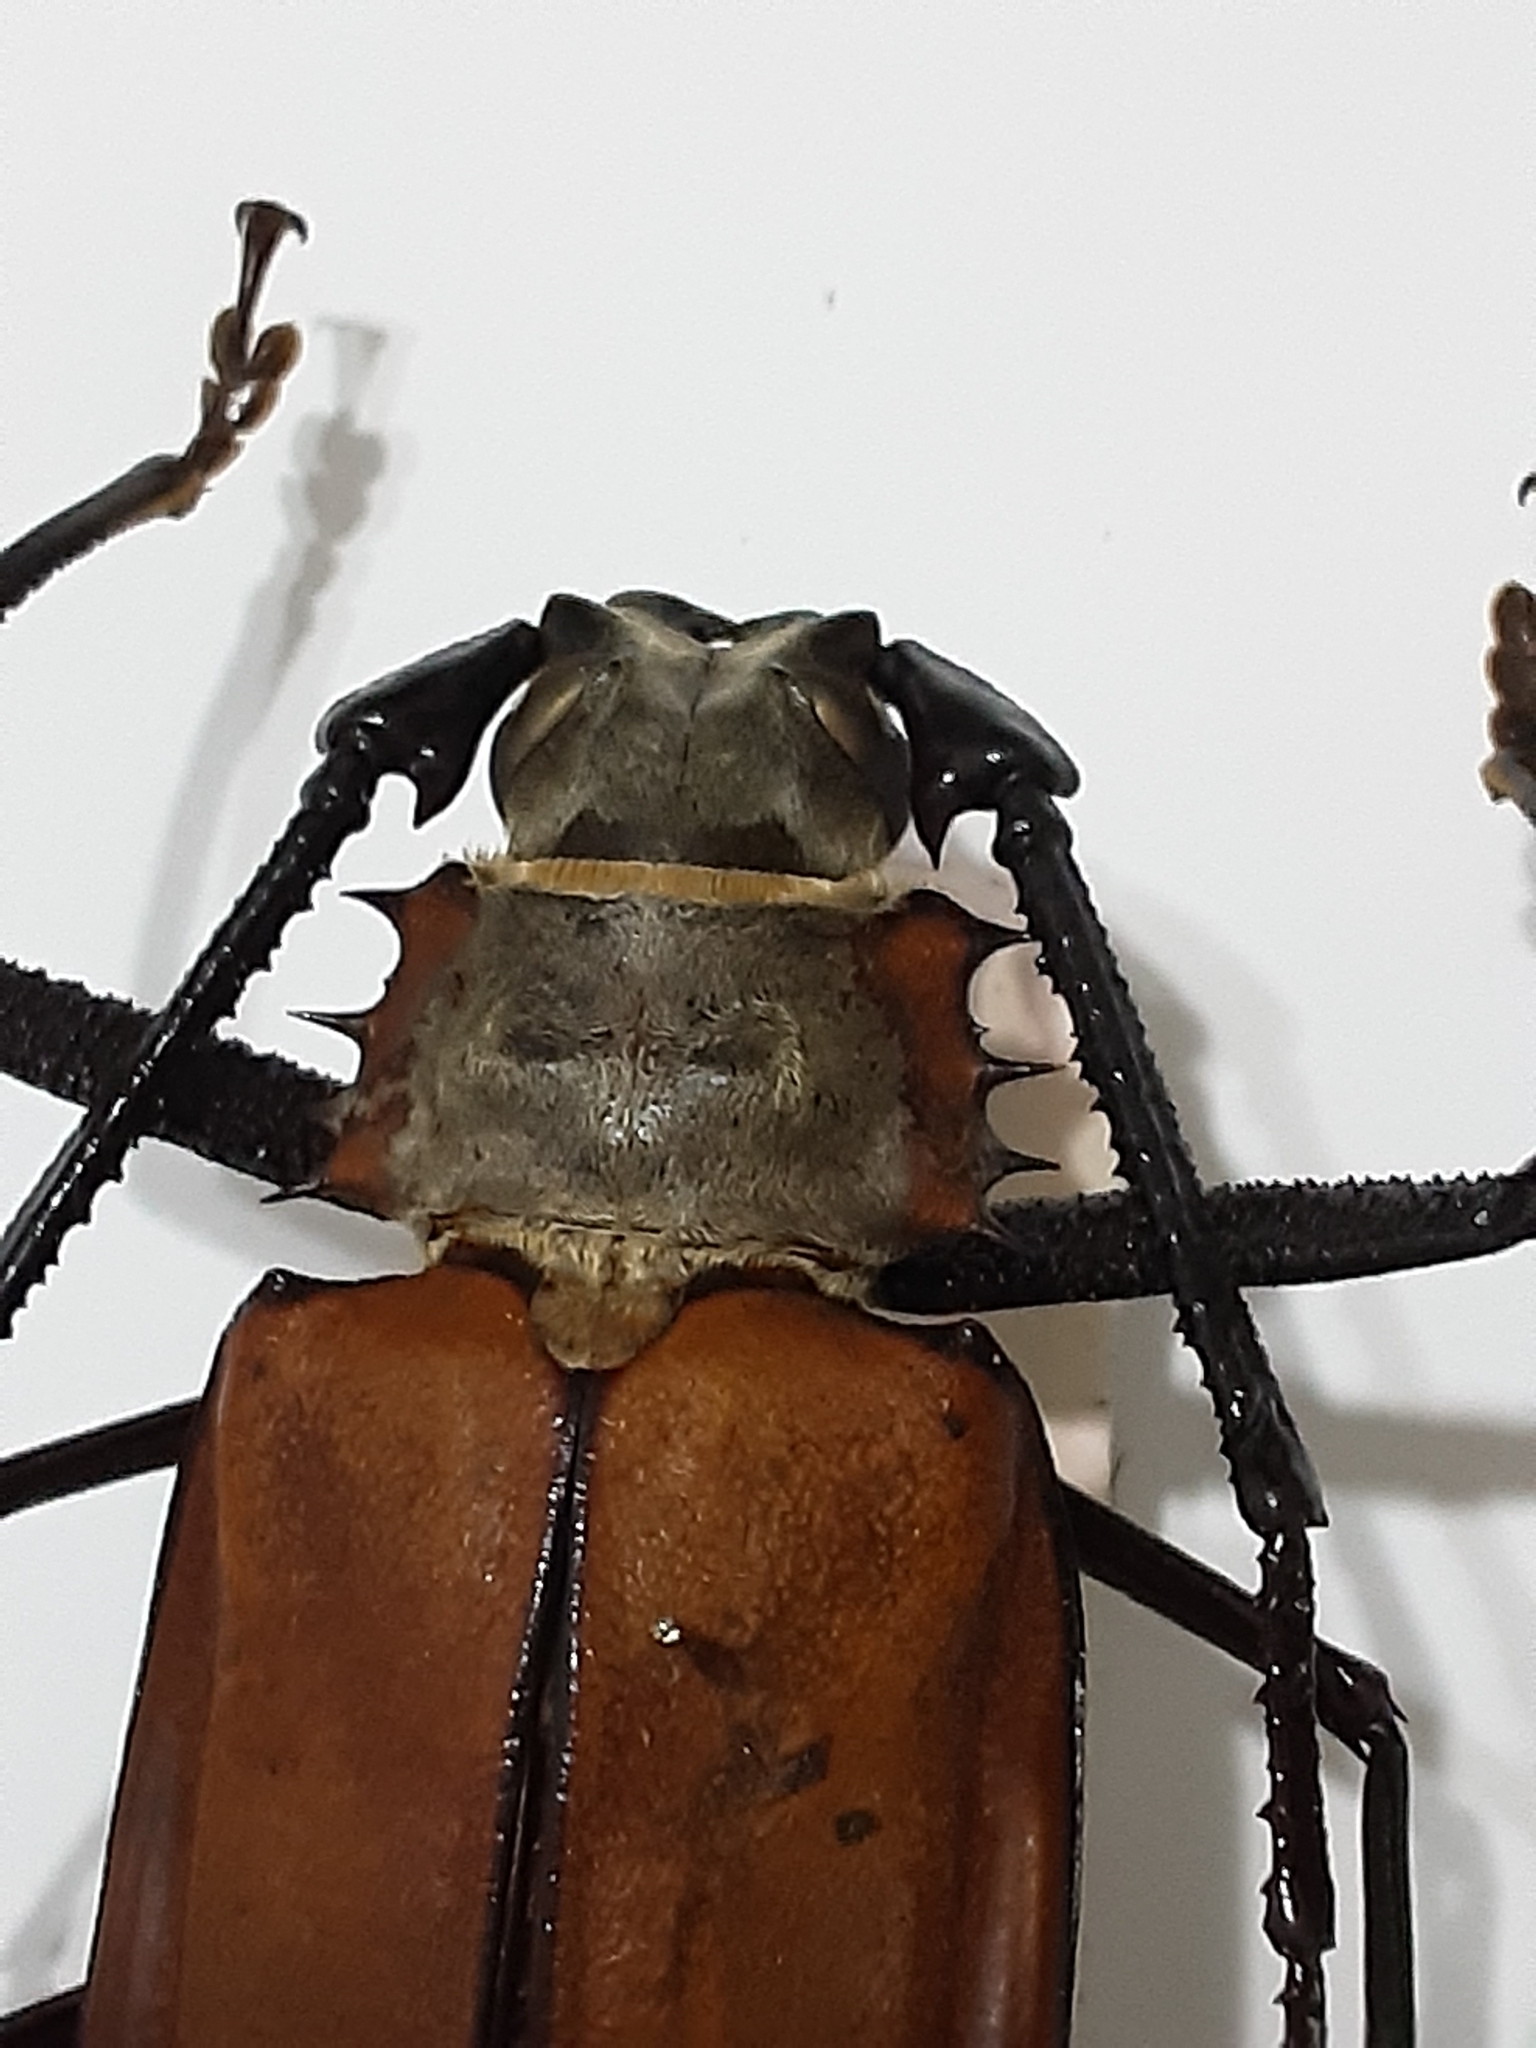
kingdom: Animalia
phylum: Arthropoda
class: Insecta
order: Coleoptera
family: Cerambycidae
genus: Enoplocerus
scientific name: Enoplocerus armillatus
